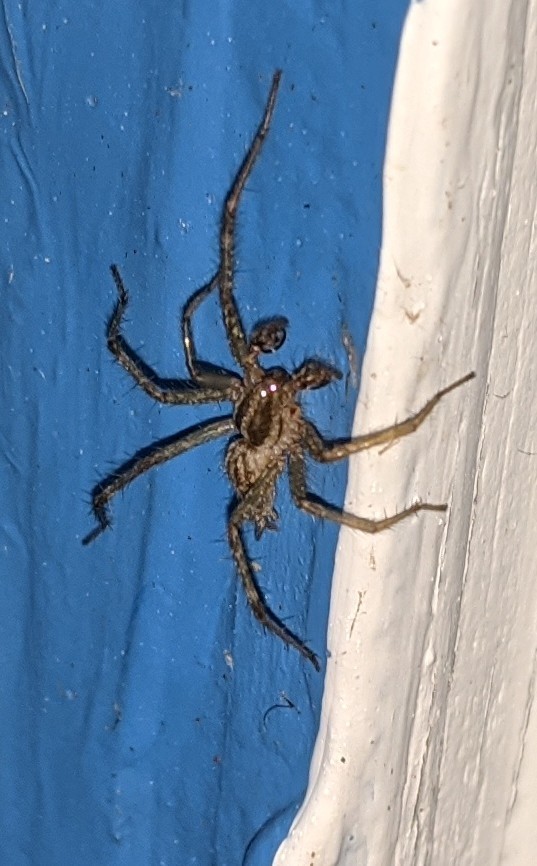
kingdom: Animalia
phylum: Arthropoda
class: Arachnida
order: Araneae
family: Agelenidae
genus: Agelenopsis
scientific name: Agelenopsis
